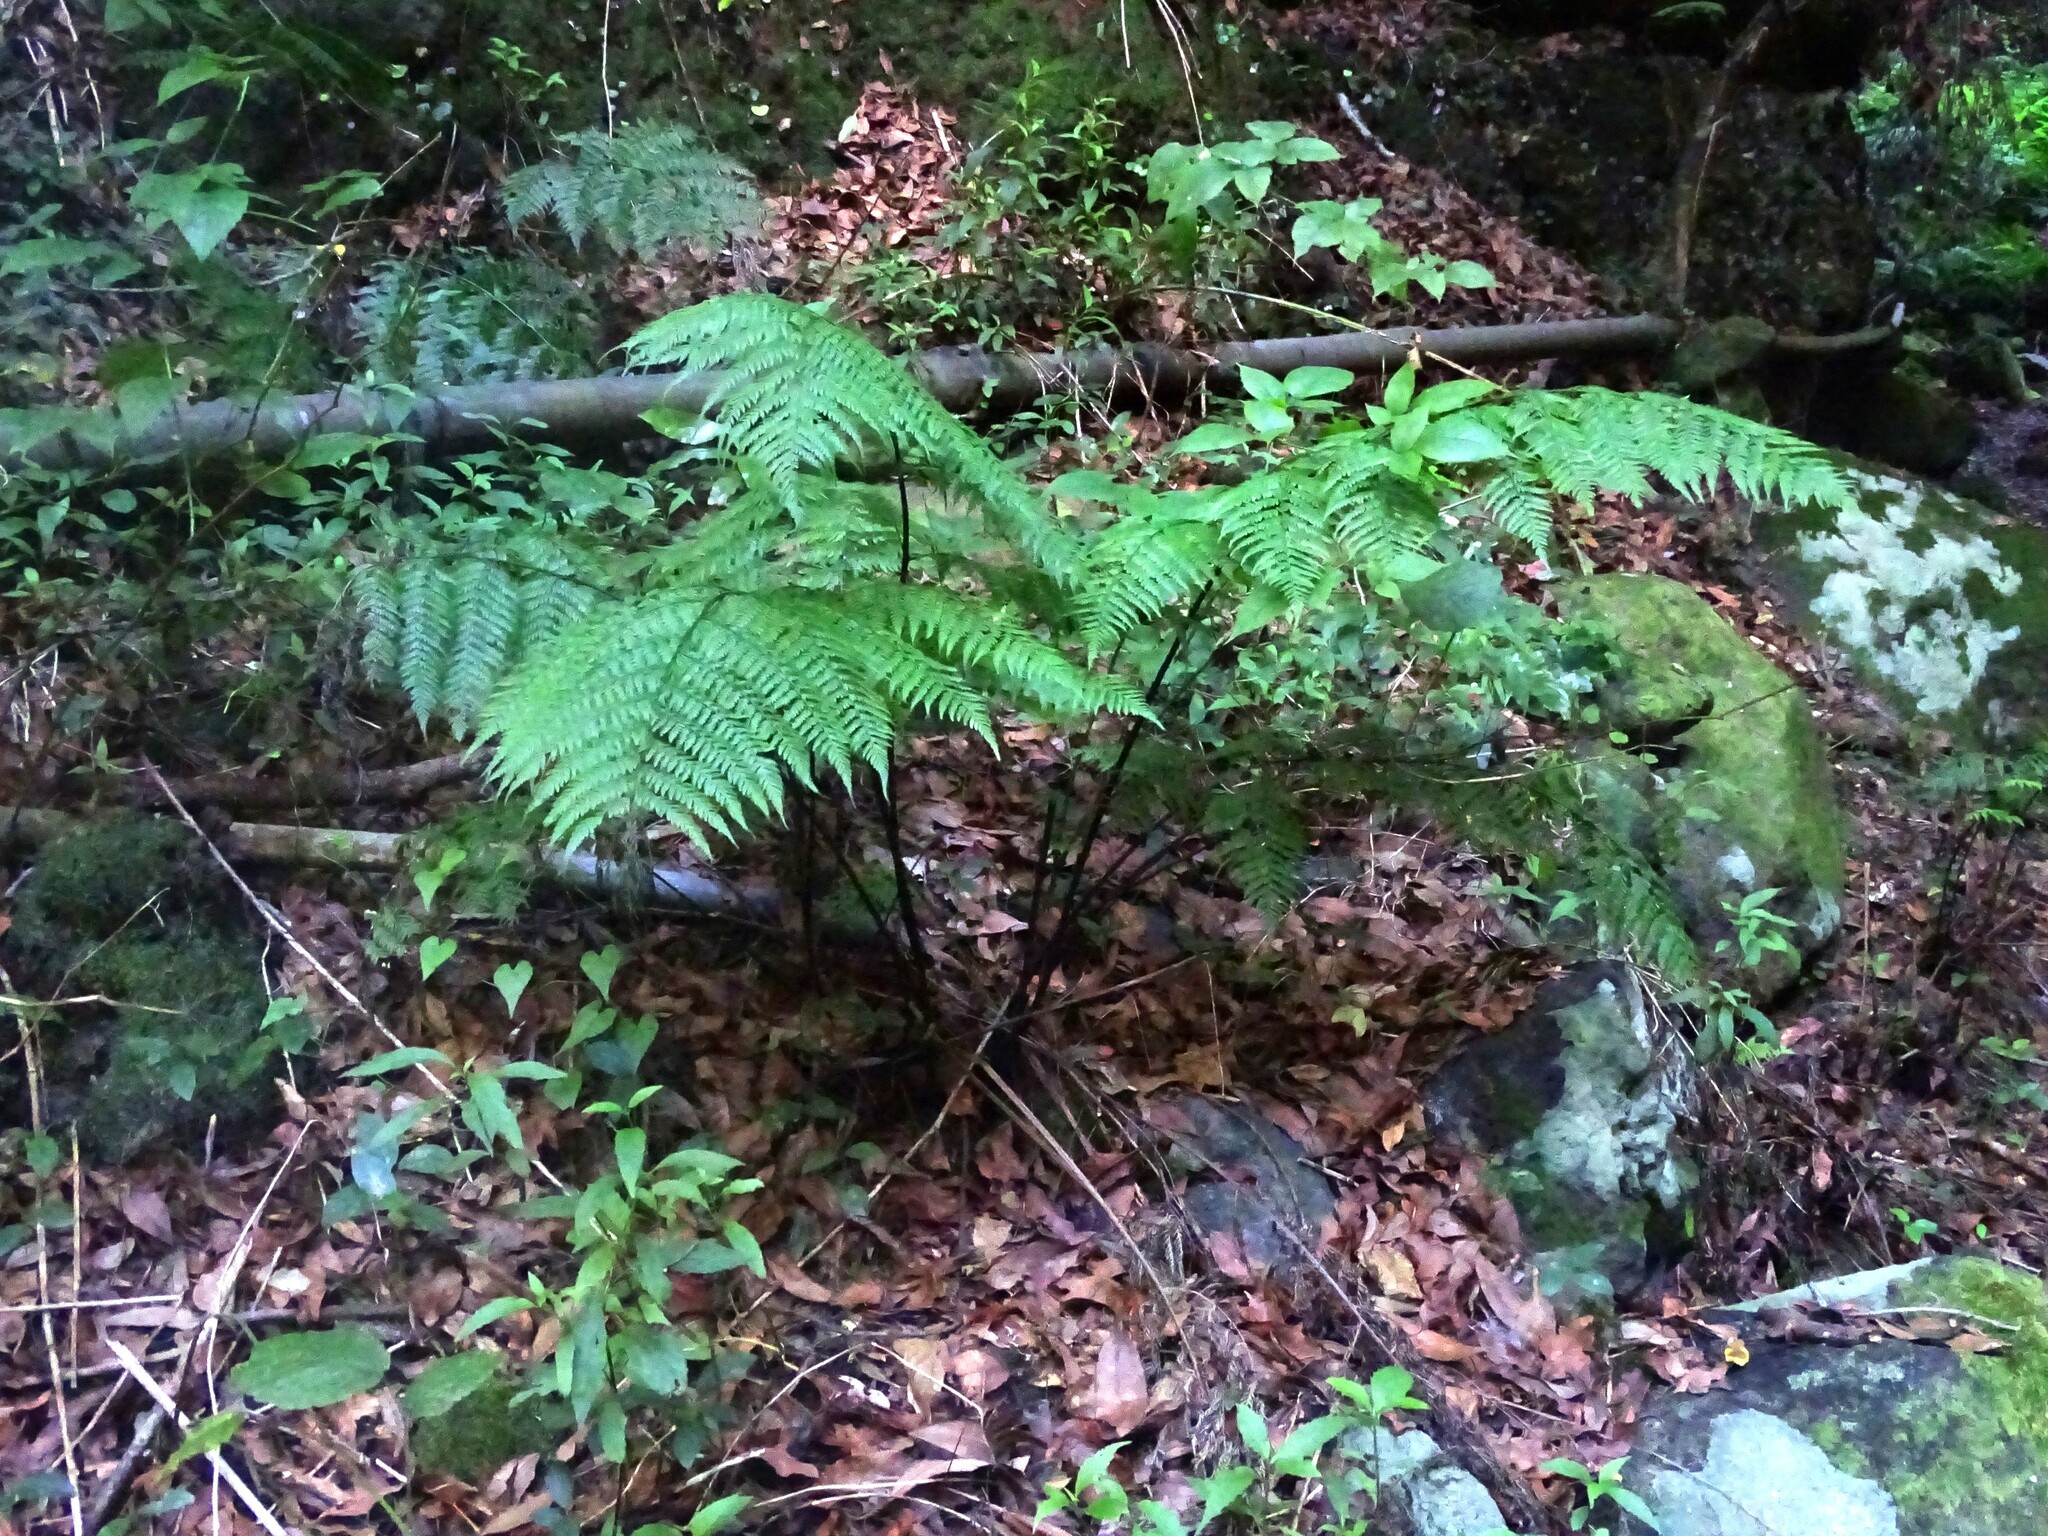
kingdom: Plantae
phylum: Tracheophyta
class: Polypodiopsida
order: Polypodiales
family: Athyriaceae
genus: Diplazium
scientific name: Diplazium caudatum
